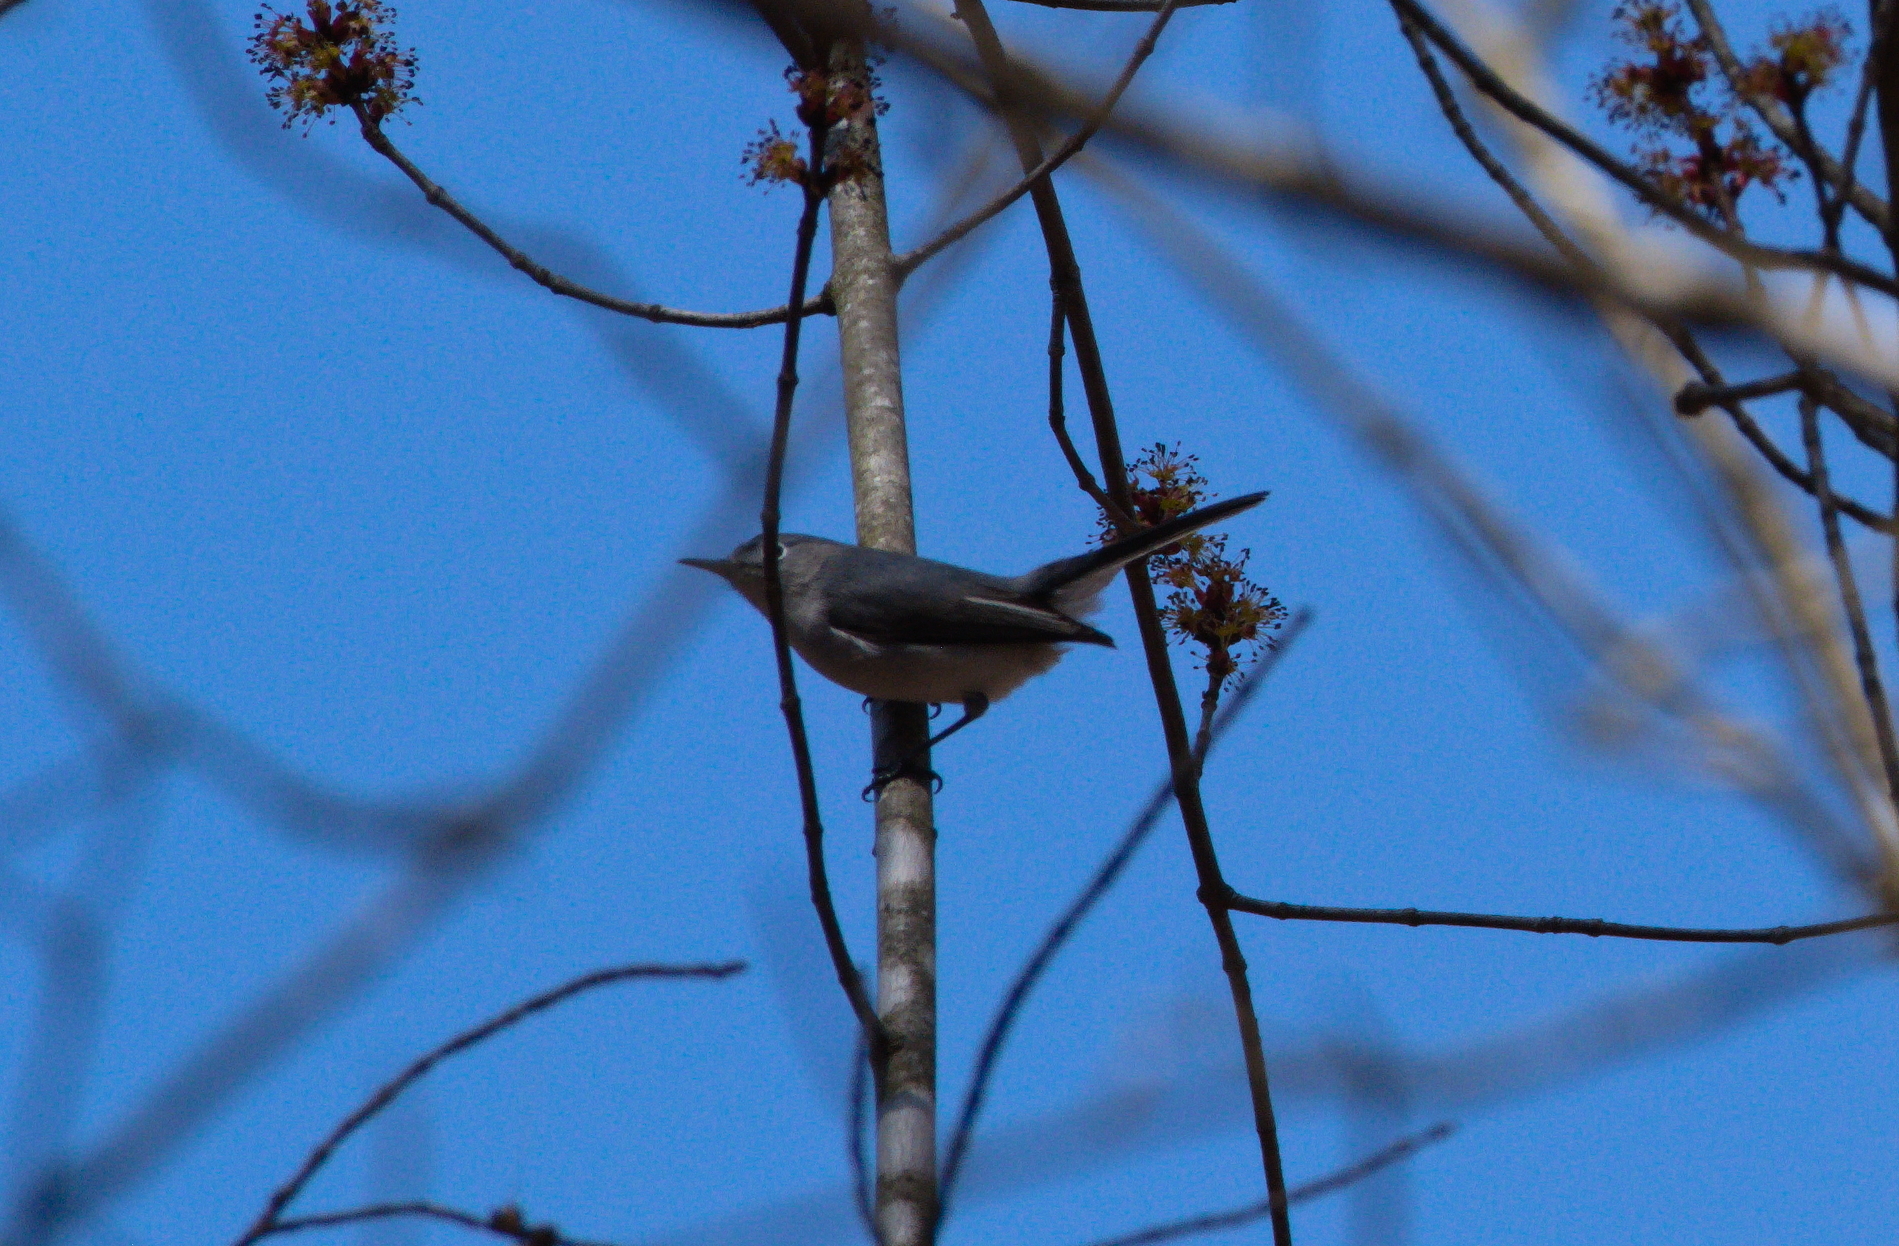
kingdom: Animalia
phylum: Chordata
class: Aves
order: Passeriformes
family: Polioptilidae
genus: Polioptila
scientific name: Polioptila caerulea
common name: Blue-gray gnatcatcher
